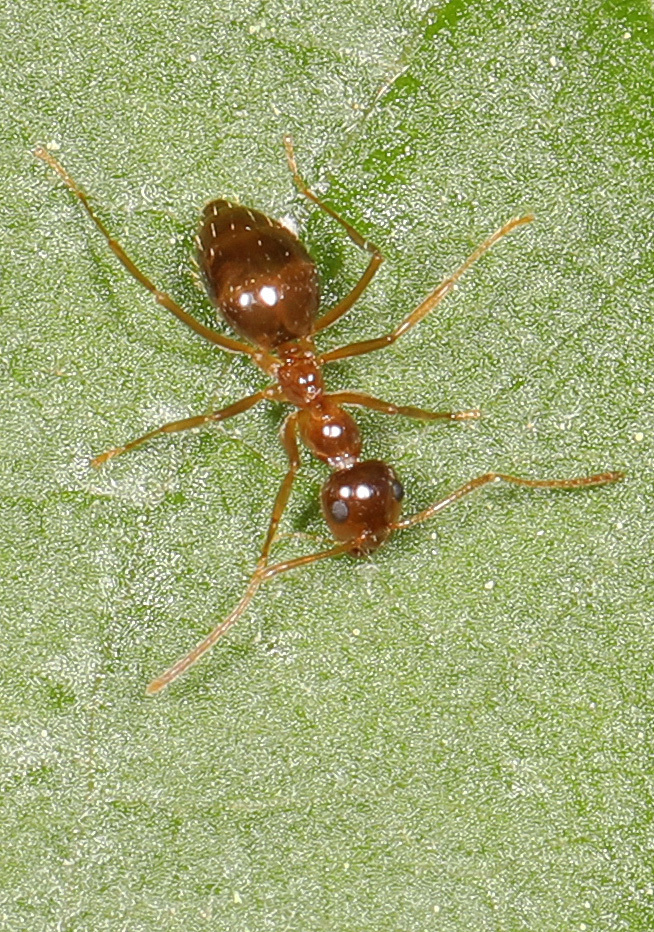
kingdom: Animalia
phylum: Arthropoda
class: Insecta
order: Hymenoptera
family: Formicidae
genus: Prenolepis
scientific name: Prenolepis imparis
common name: Small honey ant
